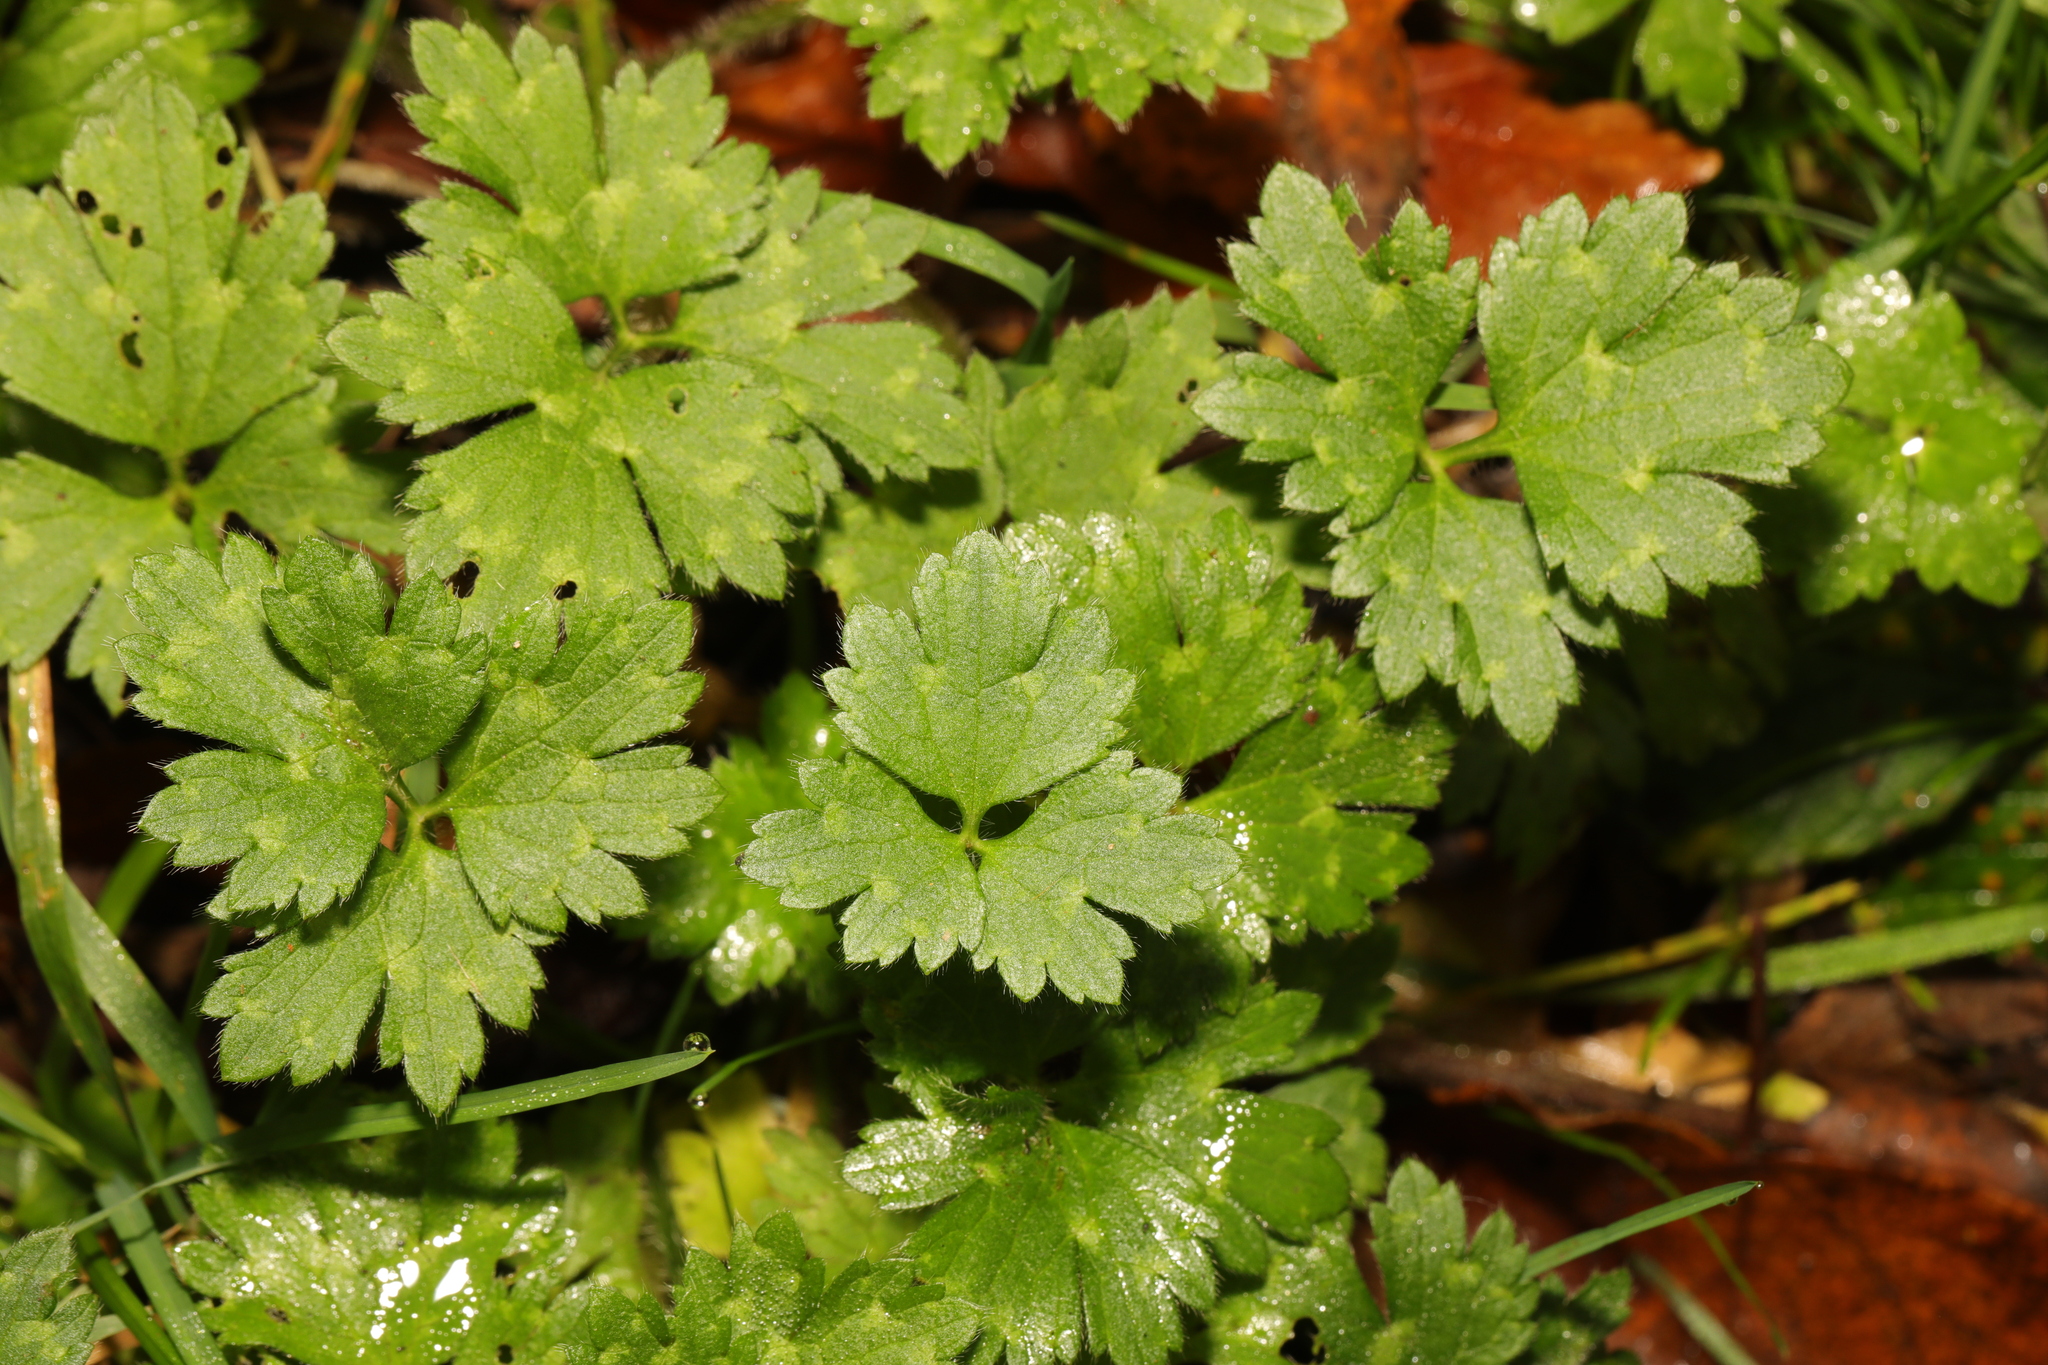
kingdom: Plantae
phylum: Tracheophyta
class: Magnoliopsida
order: Ranunculales
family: Ranunculaceae
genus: Ranunculus
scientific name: Ranunculus repens
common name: Creeping buttercup
